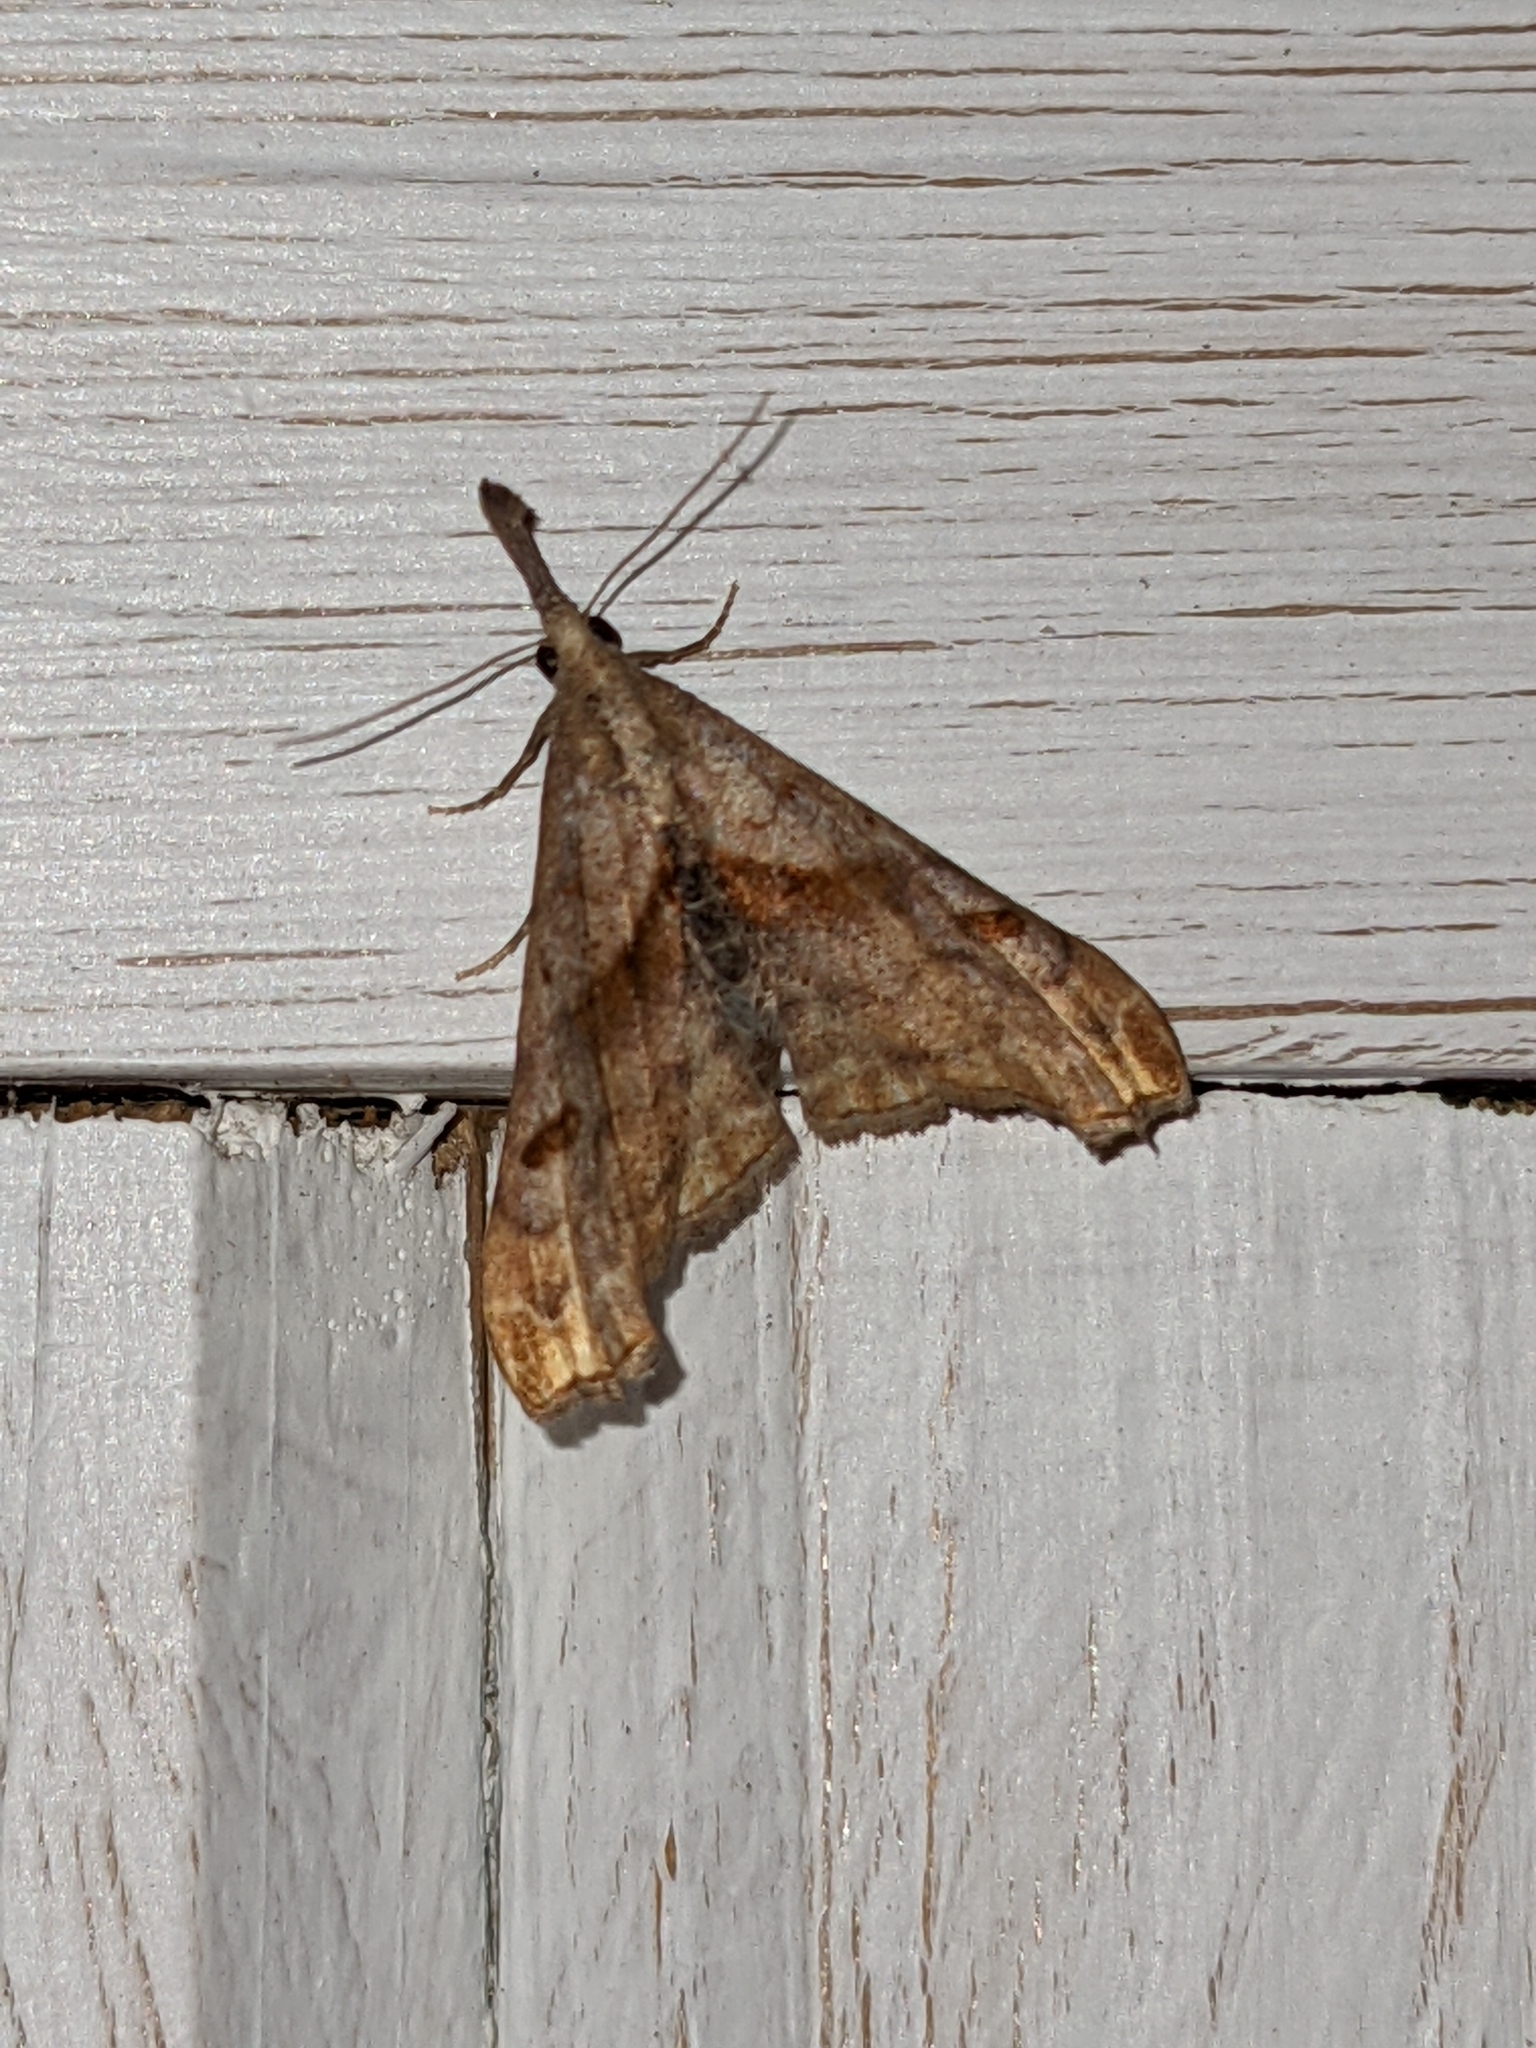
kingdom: Animalia
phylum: Arthropoda
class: Insecta
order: Lepidoptera
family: Erebidae
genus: Palthis
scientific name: Palthis angulalis
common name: Dark-spotted palthis moth
